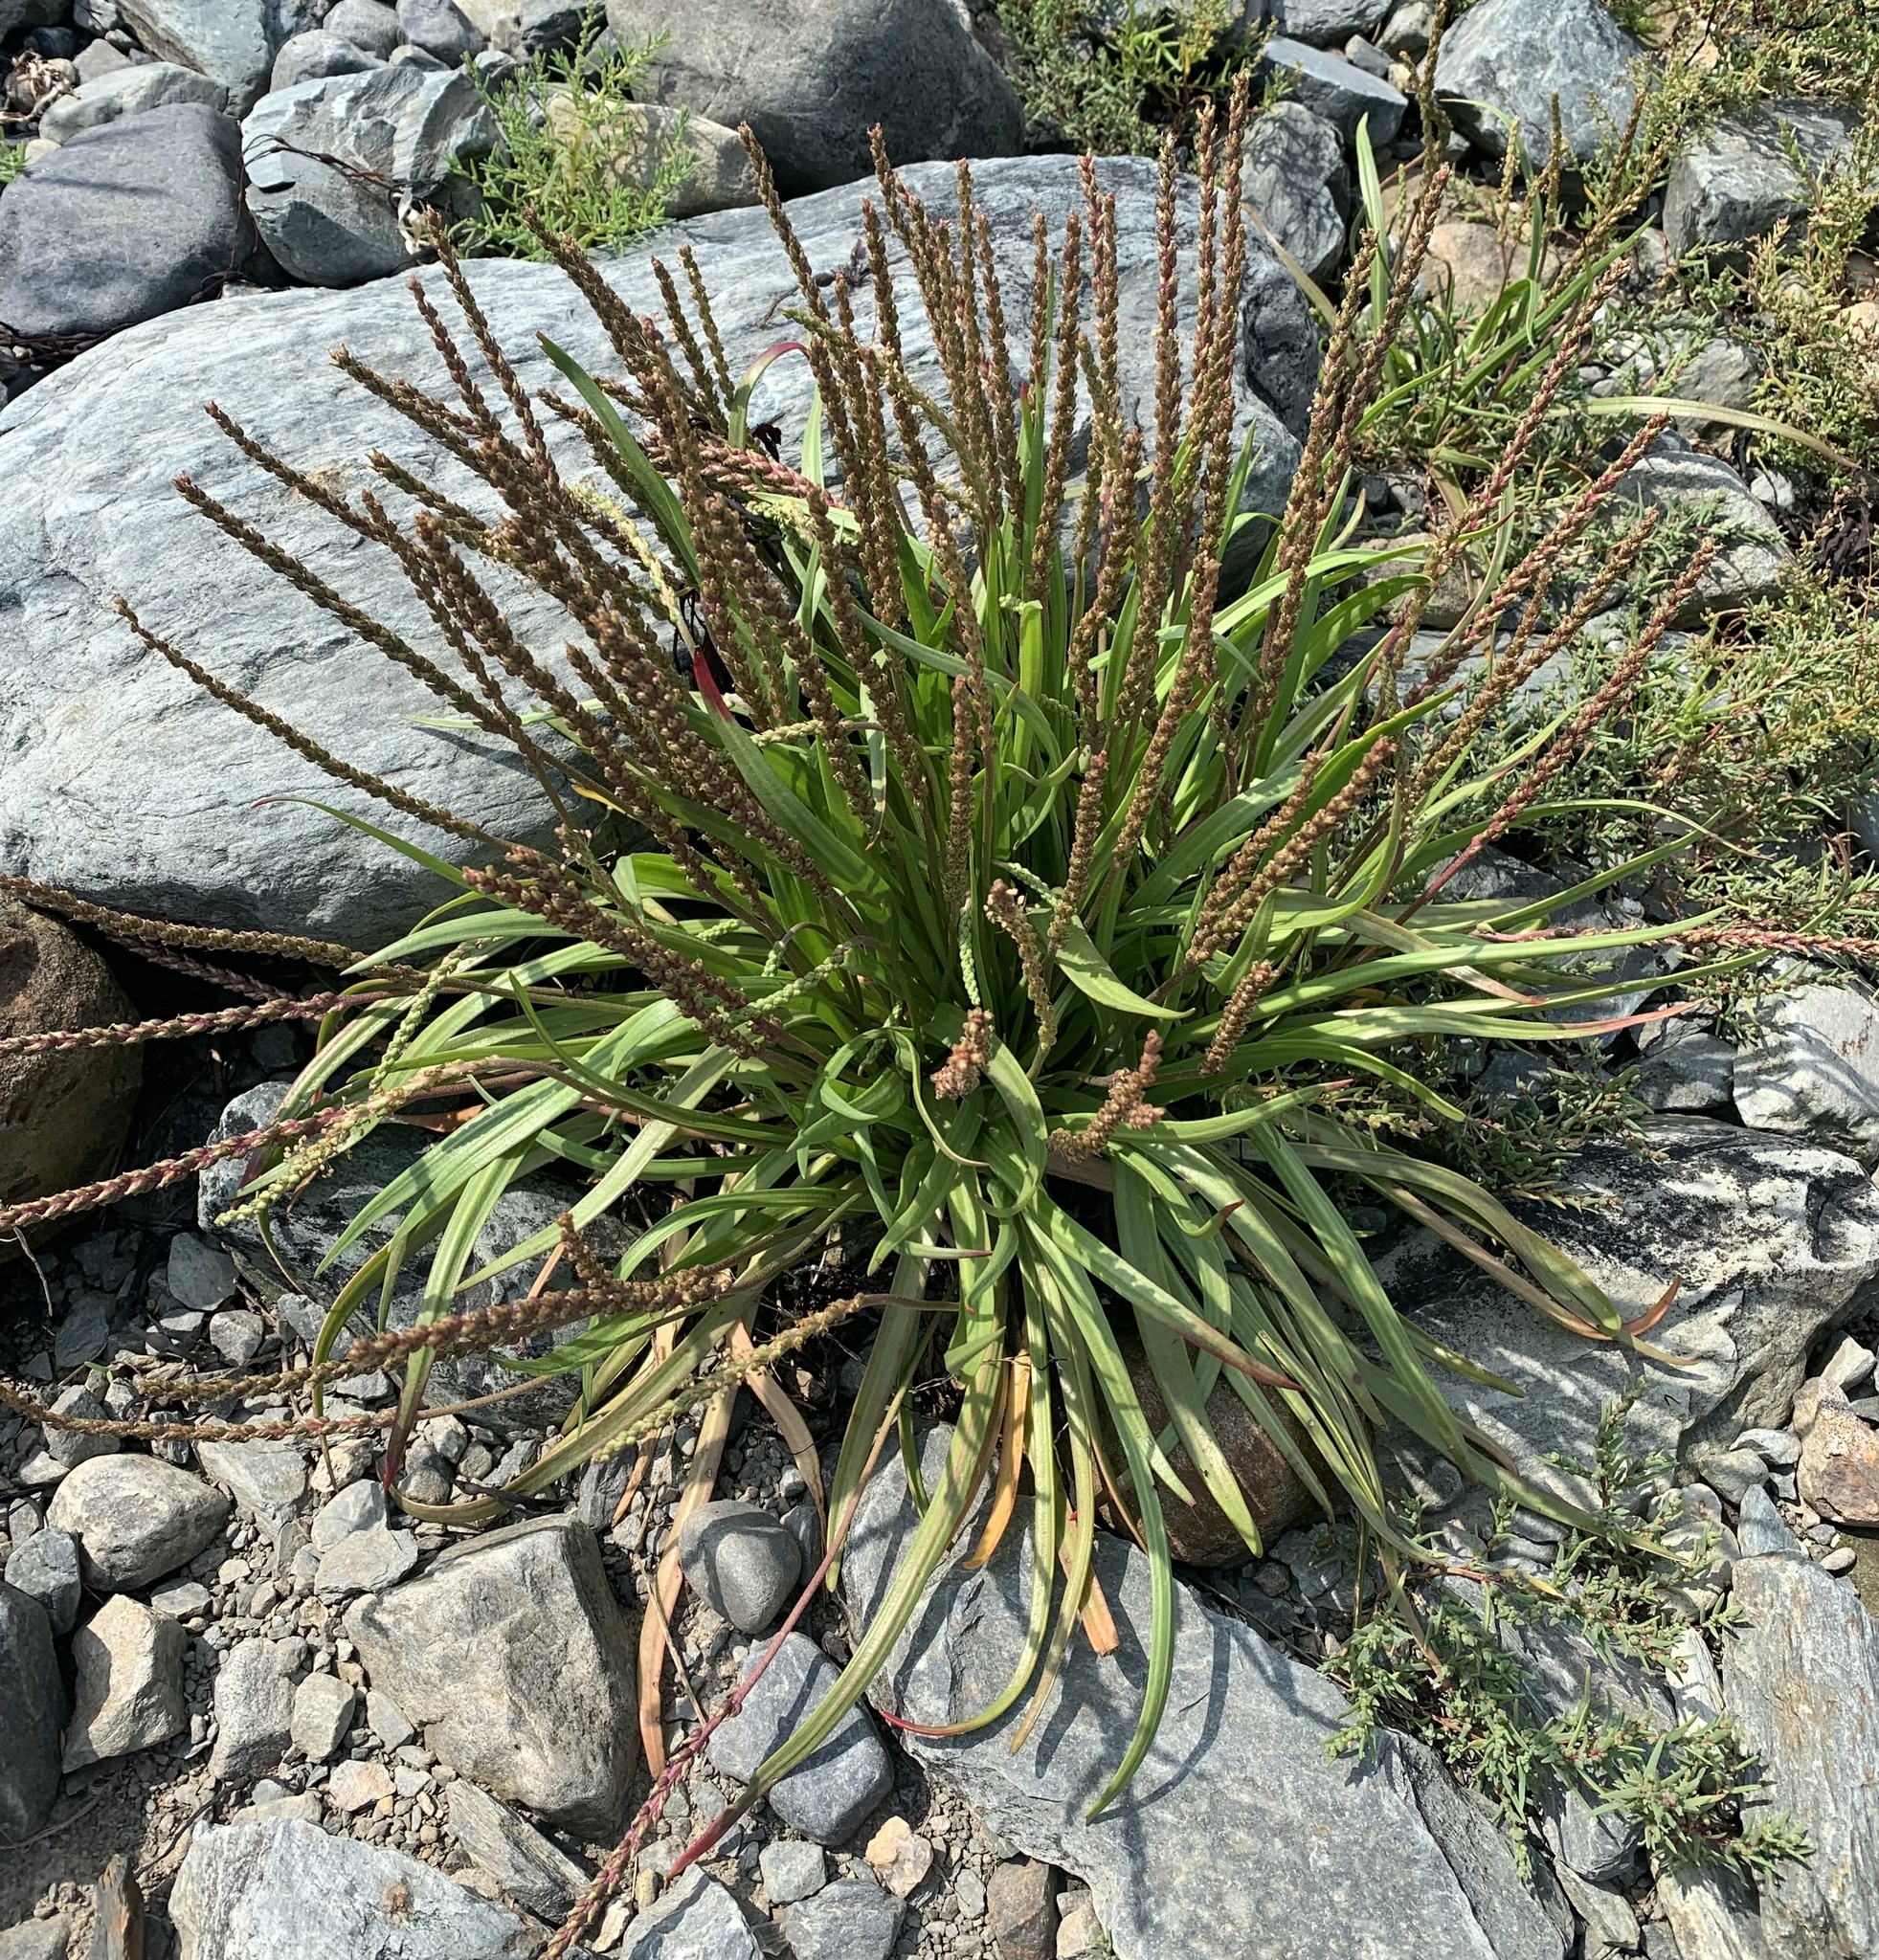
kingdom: Plantae
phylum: Tracheophyta
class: Magnoliopsida
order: Lamiales
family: Plantaginaceae
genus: Plantago
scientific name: Plantago maritima
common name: Sea plantain
